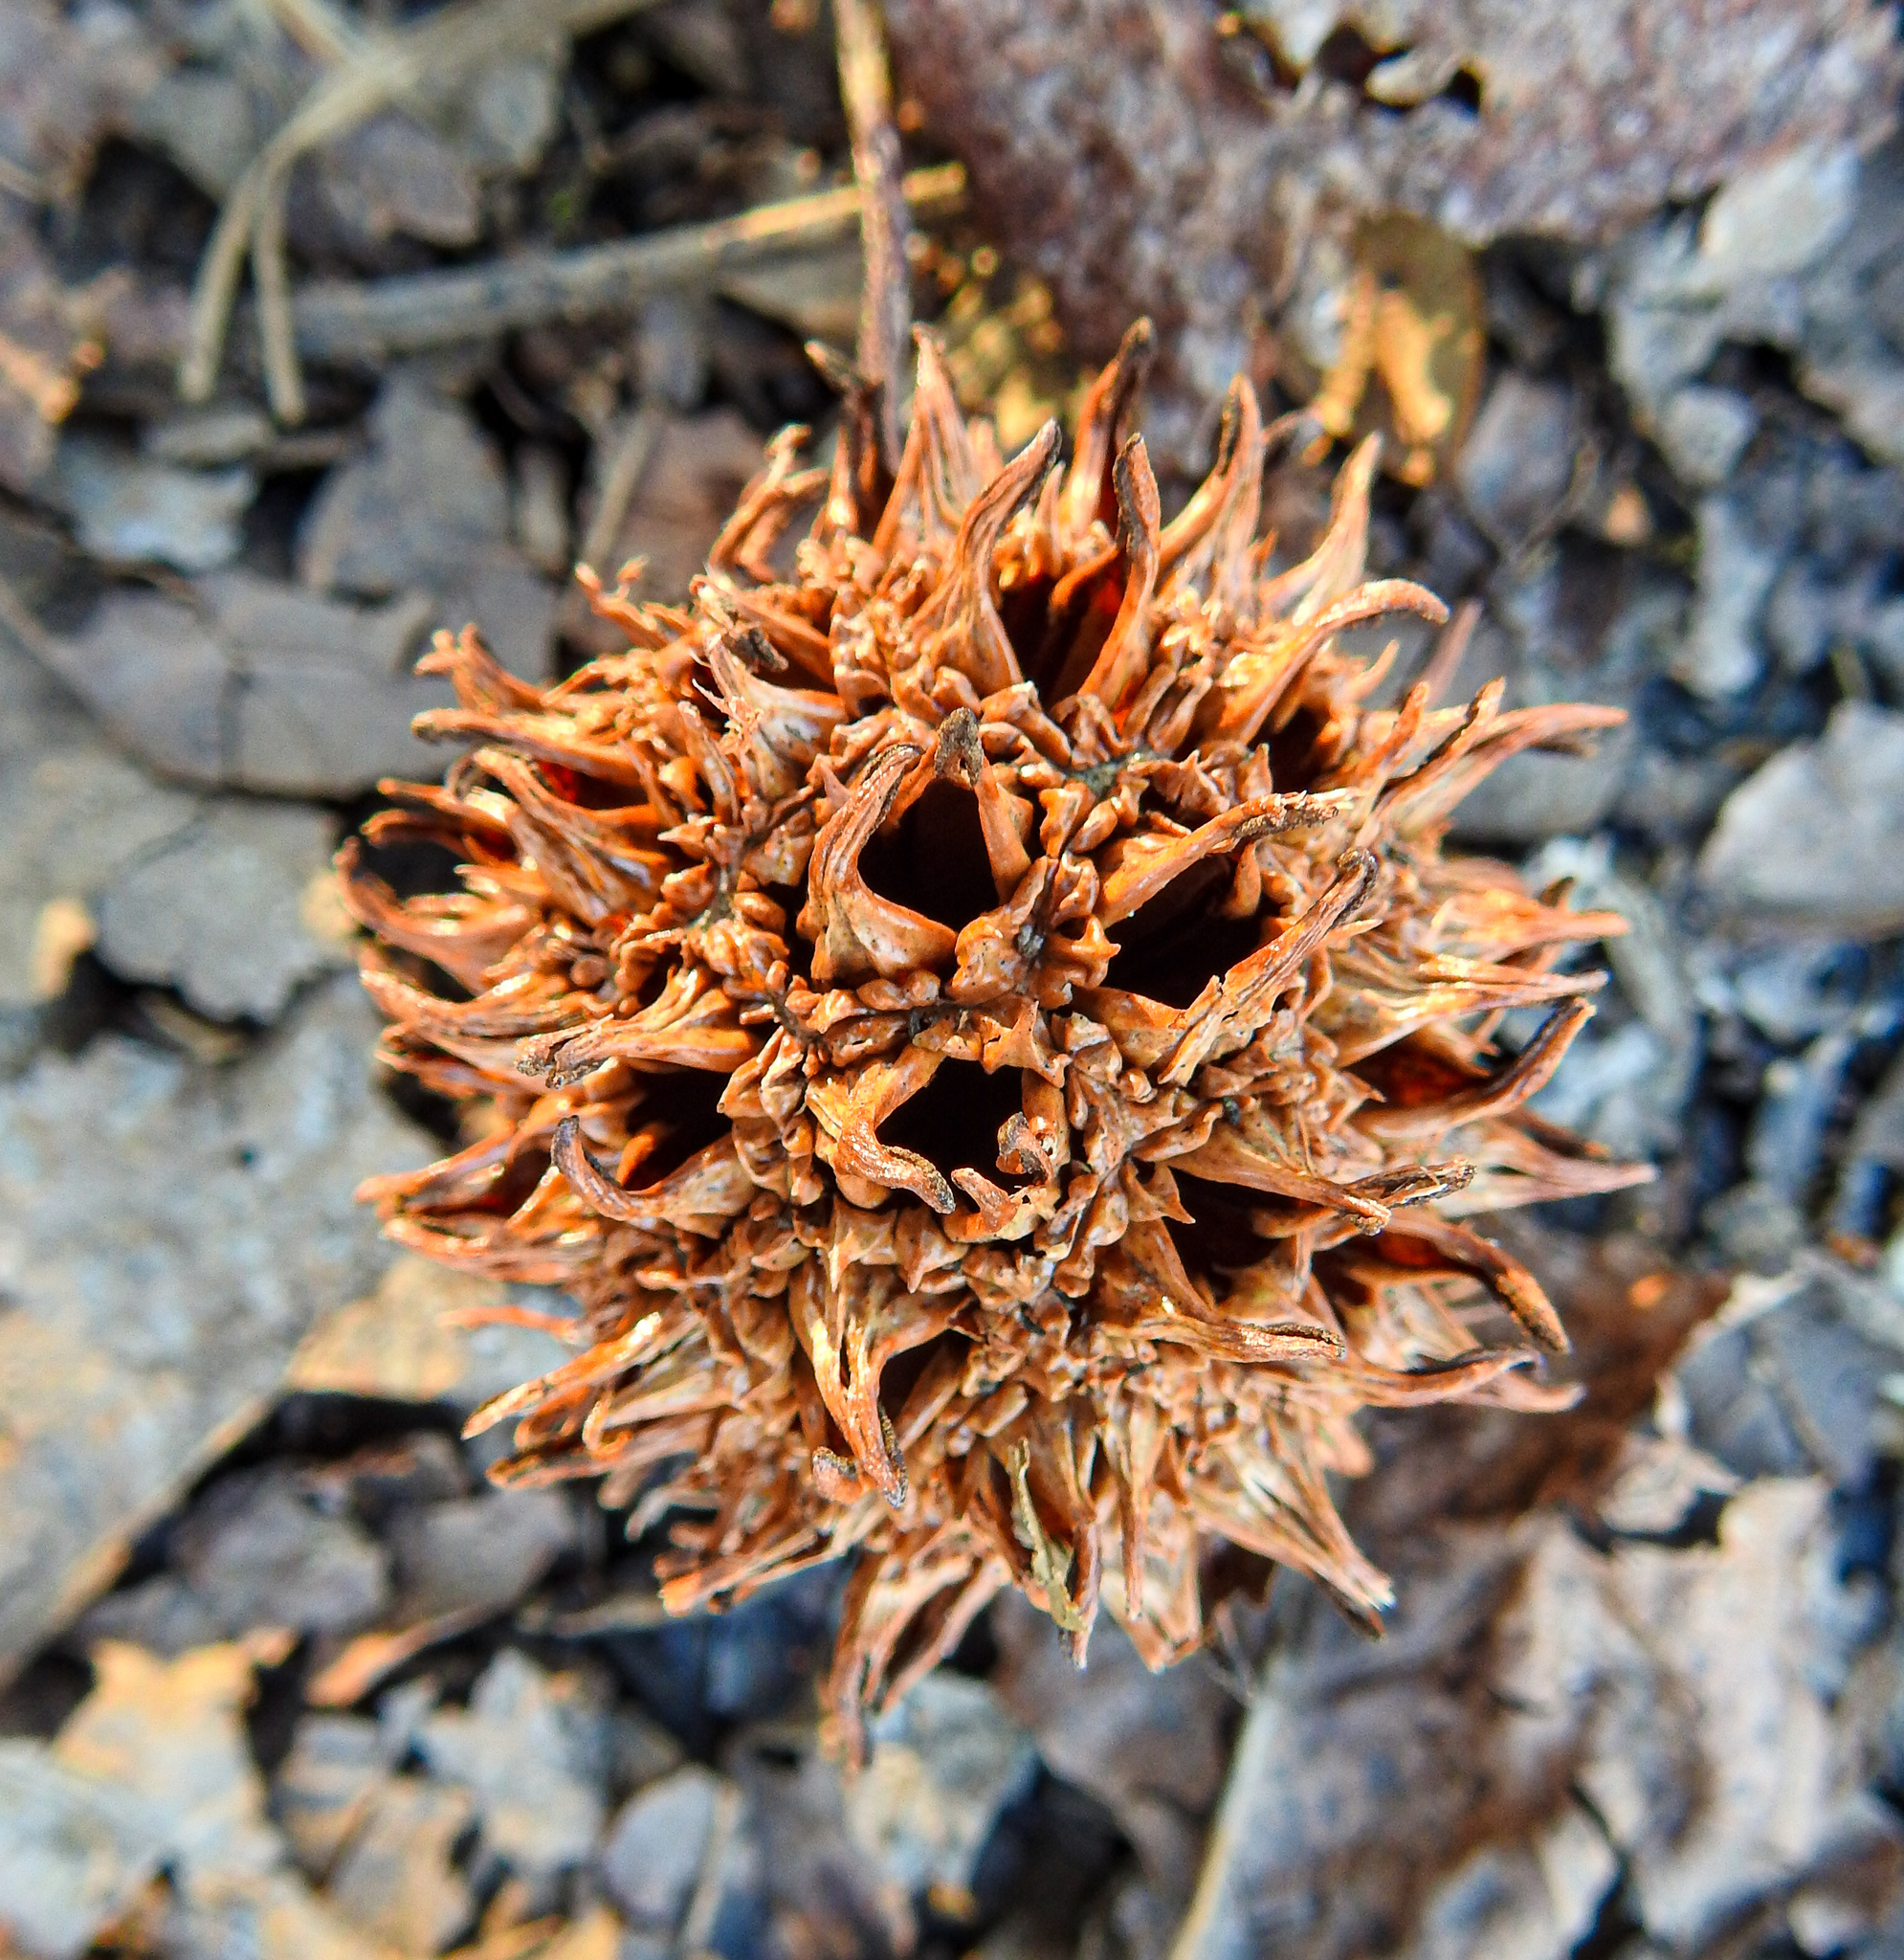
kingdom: Plantae
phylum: Tracheophyta
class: Magnoliopsida
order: Saxifragales
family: Altingiaceae
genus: Liquidambar
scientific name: Liquidambar styraciflua
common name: Sweet gum
